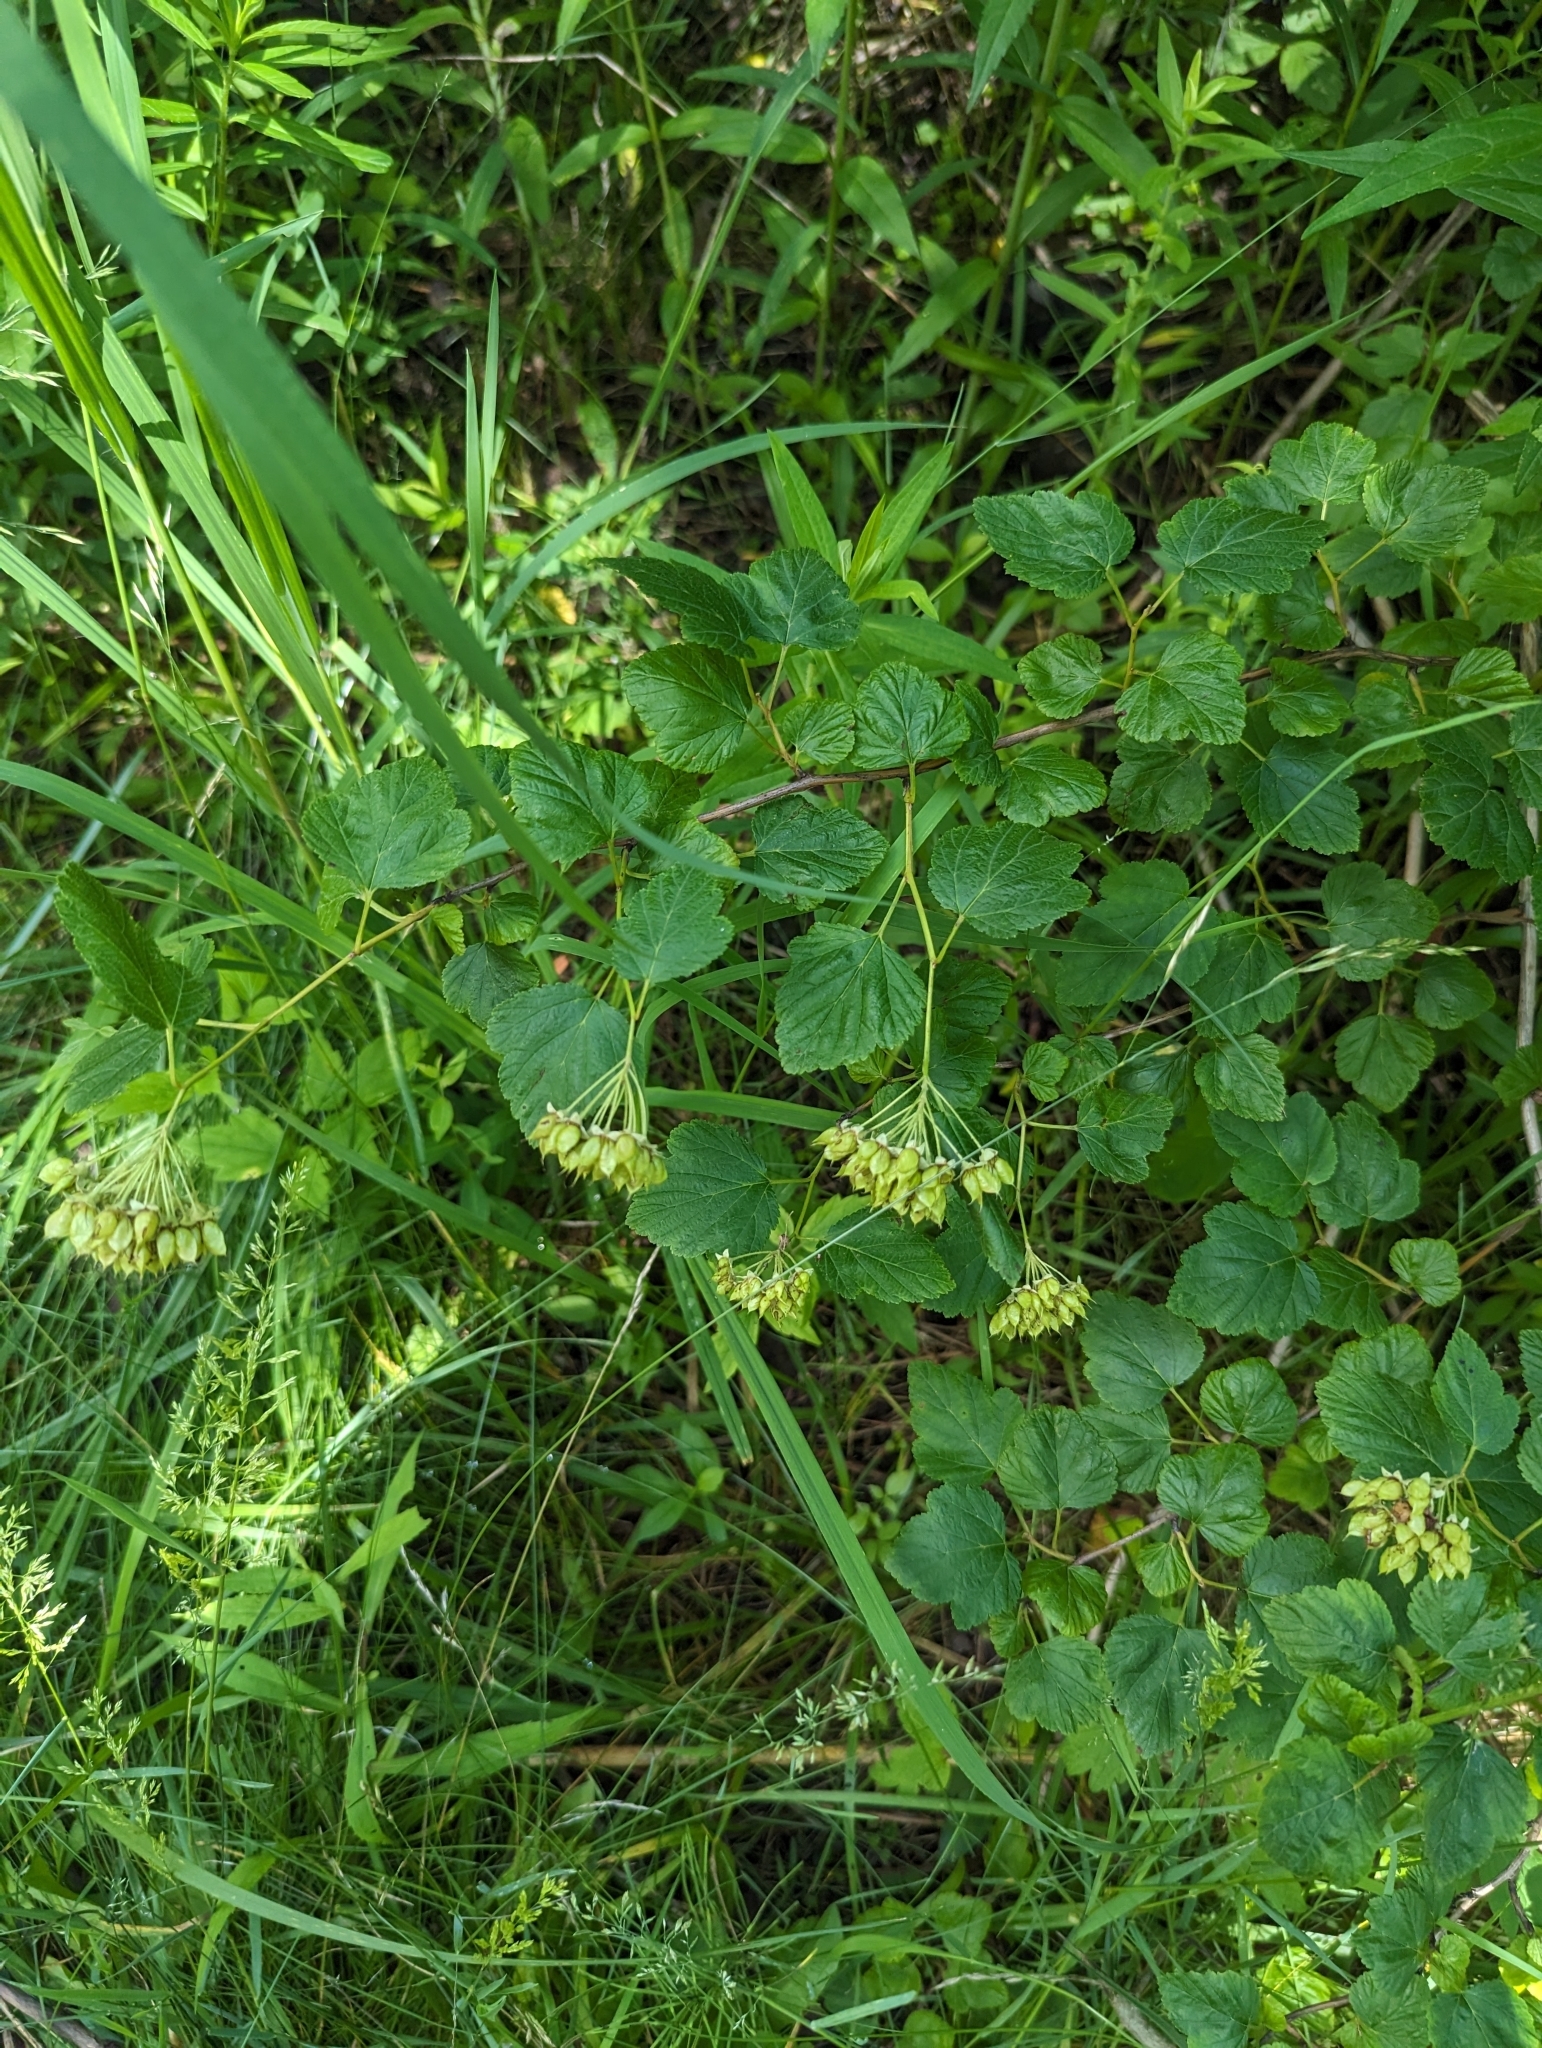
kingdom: Plantae
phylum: Tracheophyta
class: Magnoliopsida
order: Rosales
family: Rosaceae
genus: Physocarpus
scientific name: Physocarpus opulifolius
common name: Ninebark
